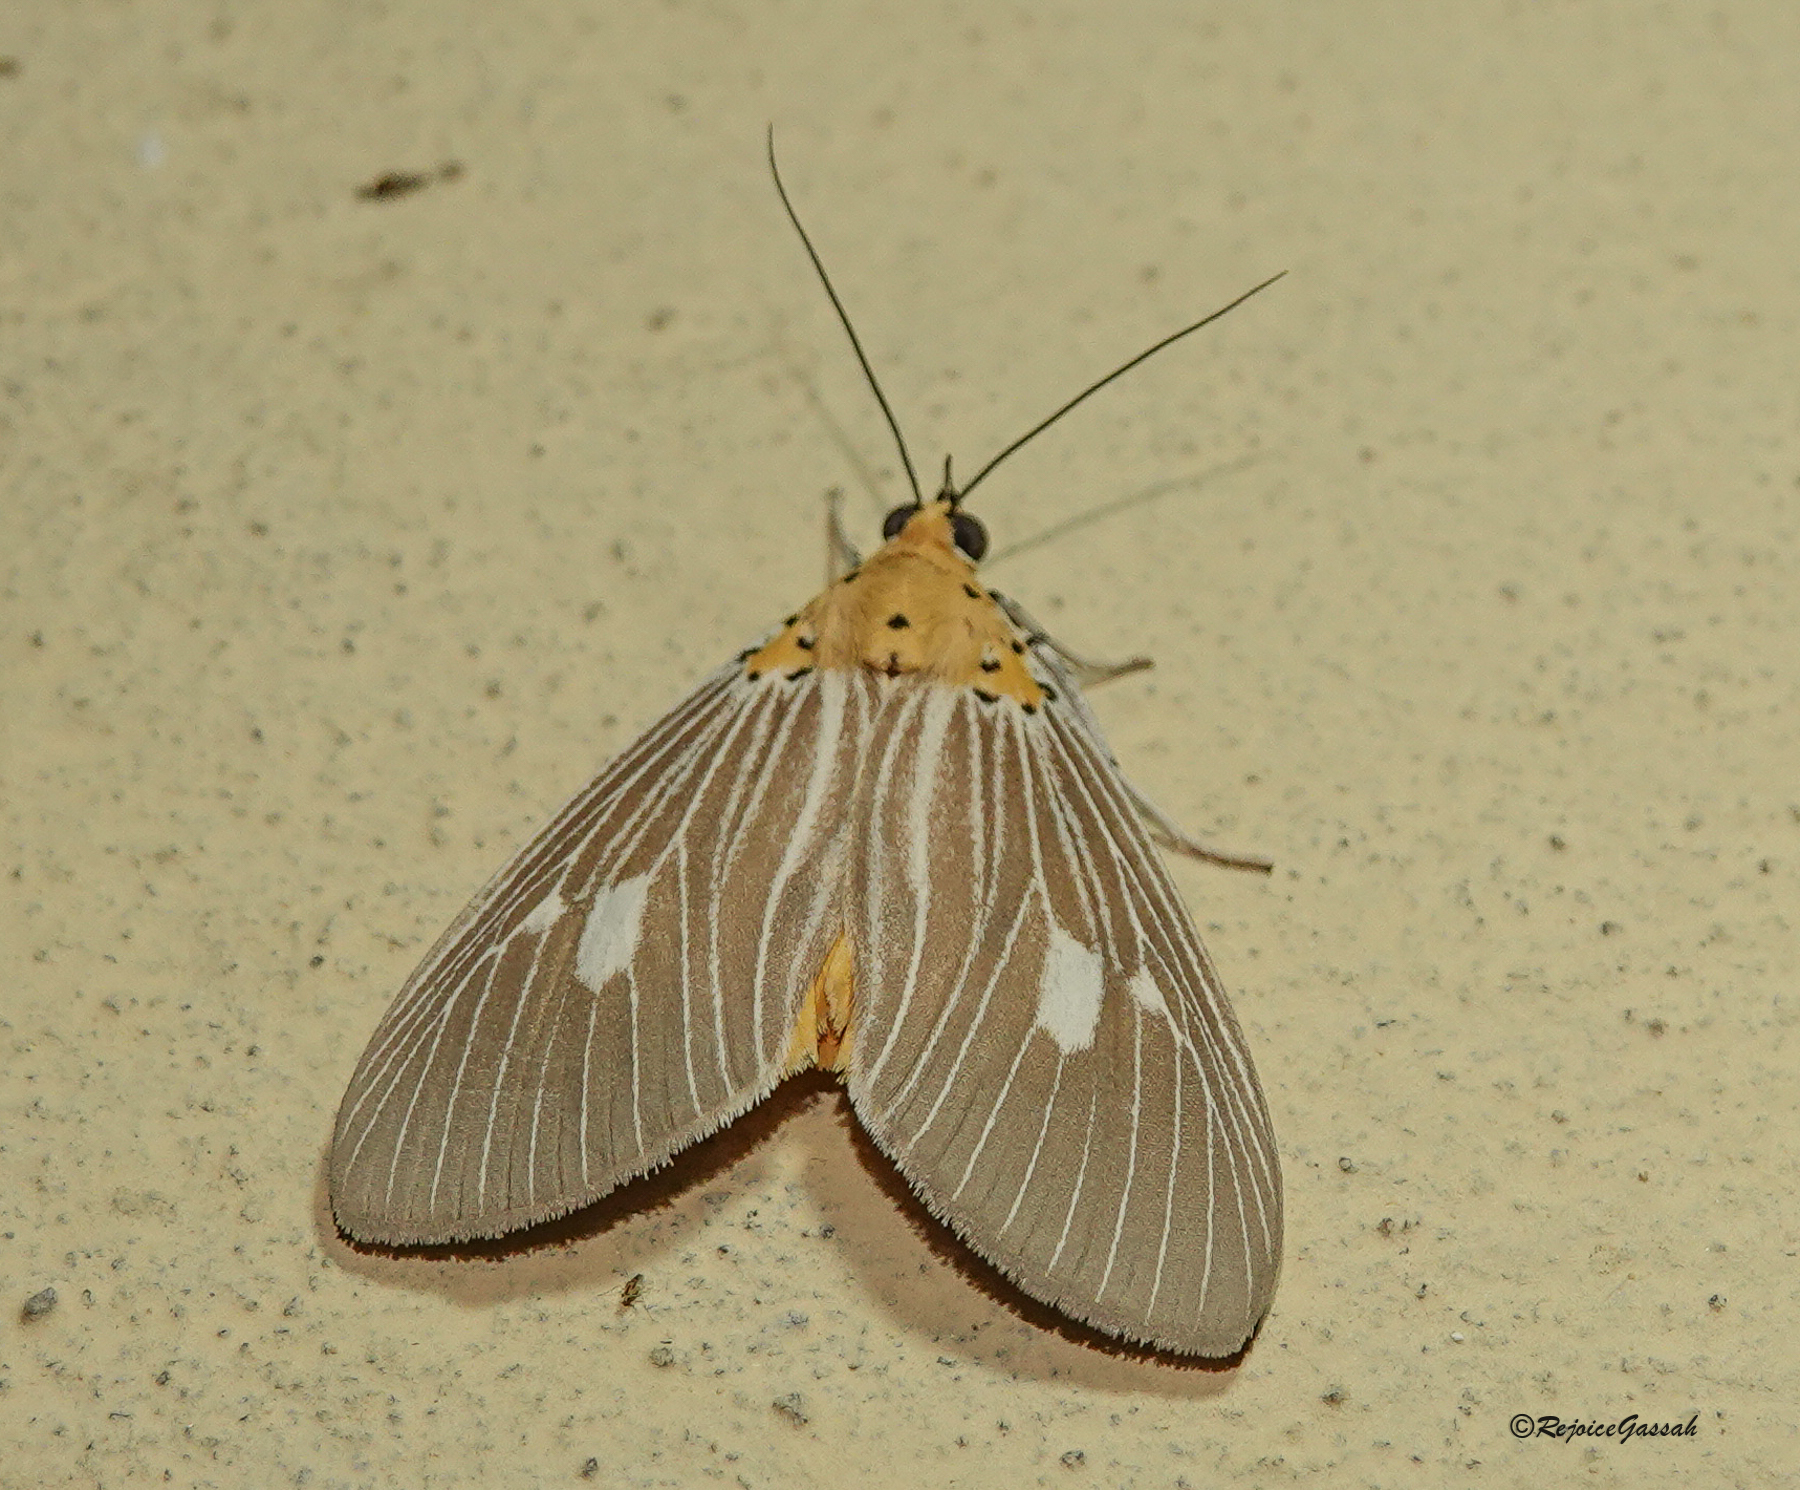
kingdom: Animalia
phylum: Arthropoda
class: Insecta
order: Lepidoptera
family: Erebidae
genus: Asota
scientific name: Asota plaginota
